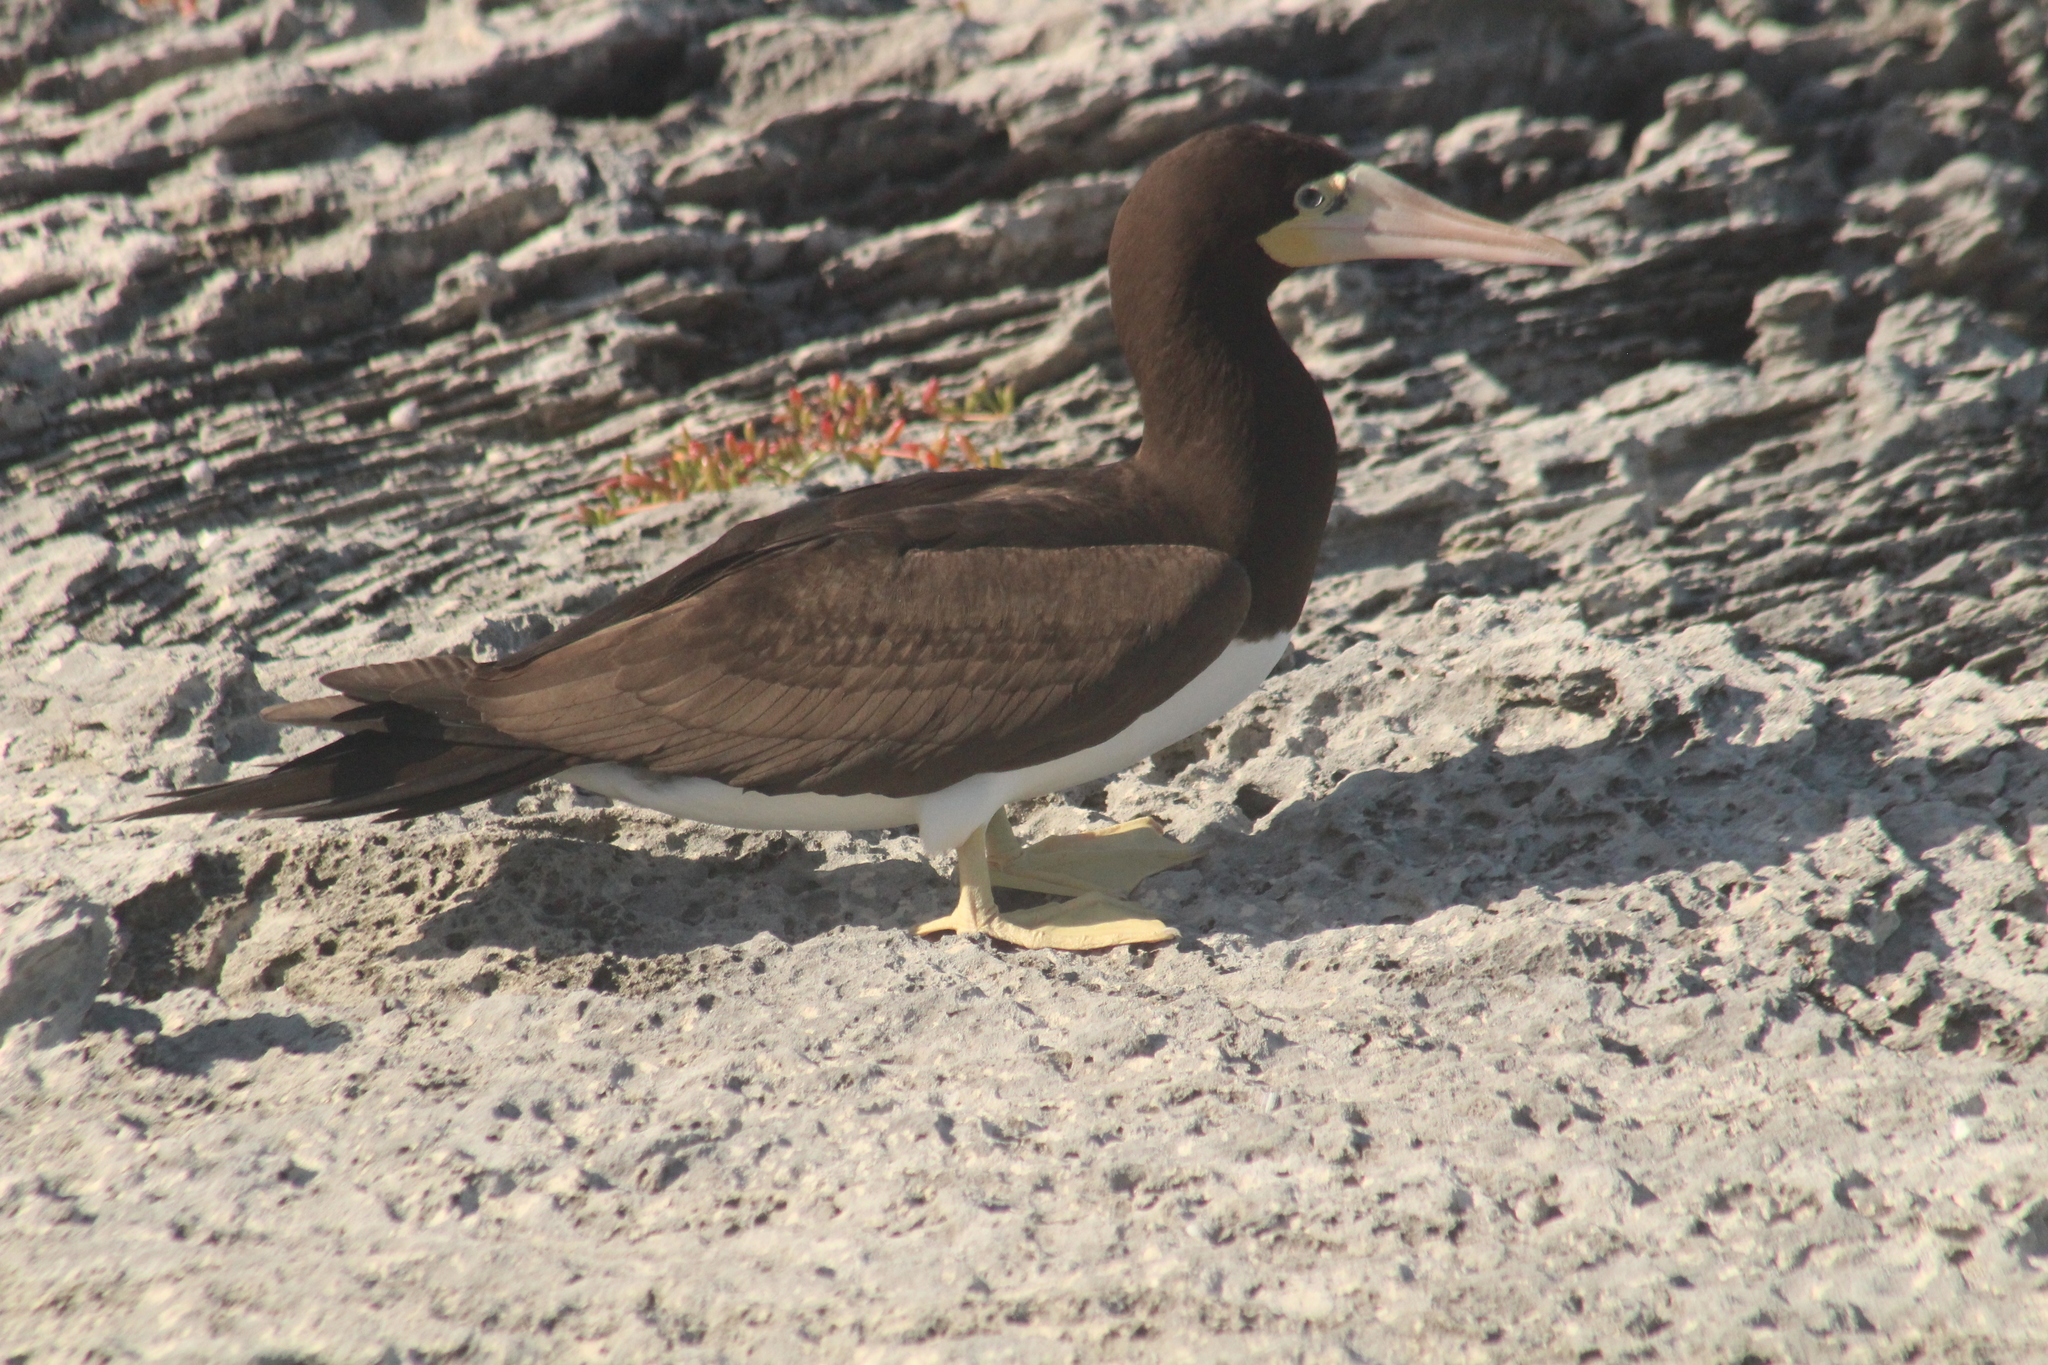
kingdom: Animalia
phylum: Chordata
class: Aves
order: Suliformes
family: Sulidae
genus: Sula
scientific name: Sula leucogaster
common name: Brown booby
